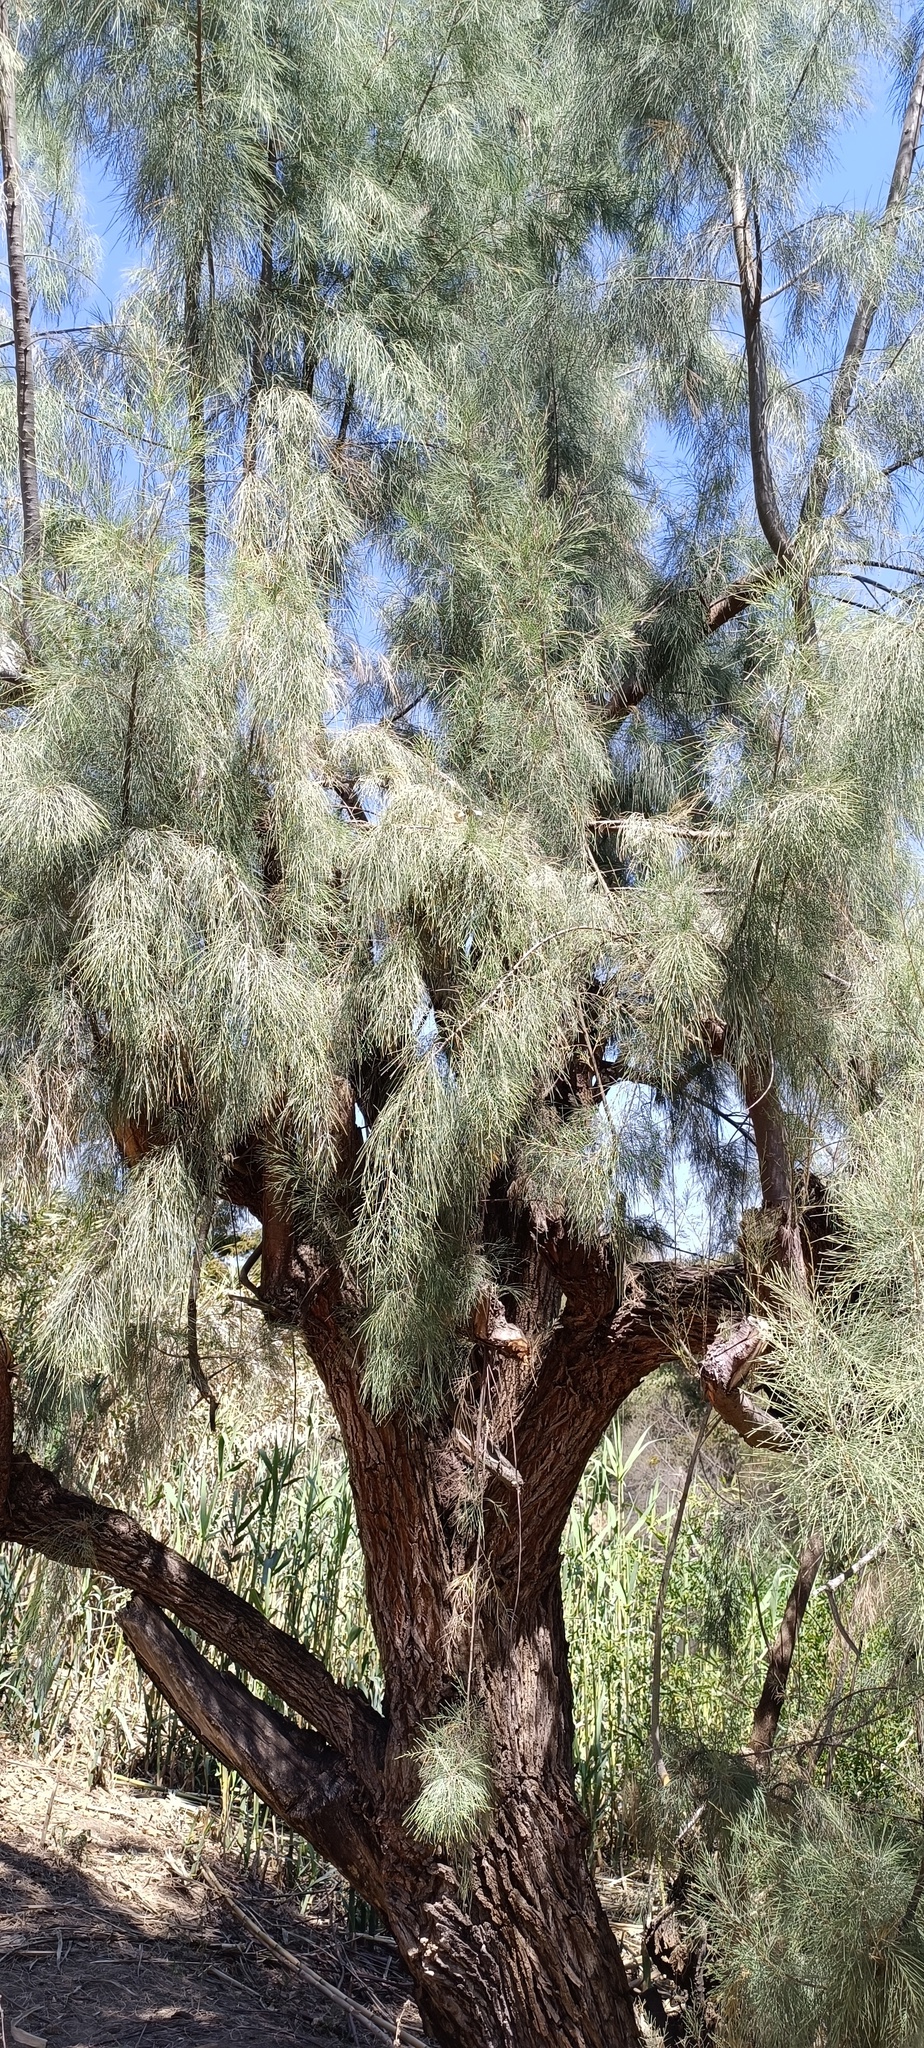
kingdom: Plantae
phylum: Tracheophyta
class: Magnoliopsida
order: Caryophyllales
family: Tamaricaceae
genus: Tamarix
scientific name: Tamarix aphylla
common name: Athel tamarisk
